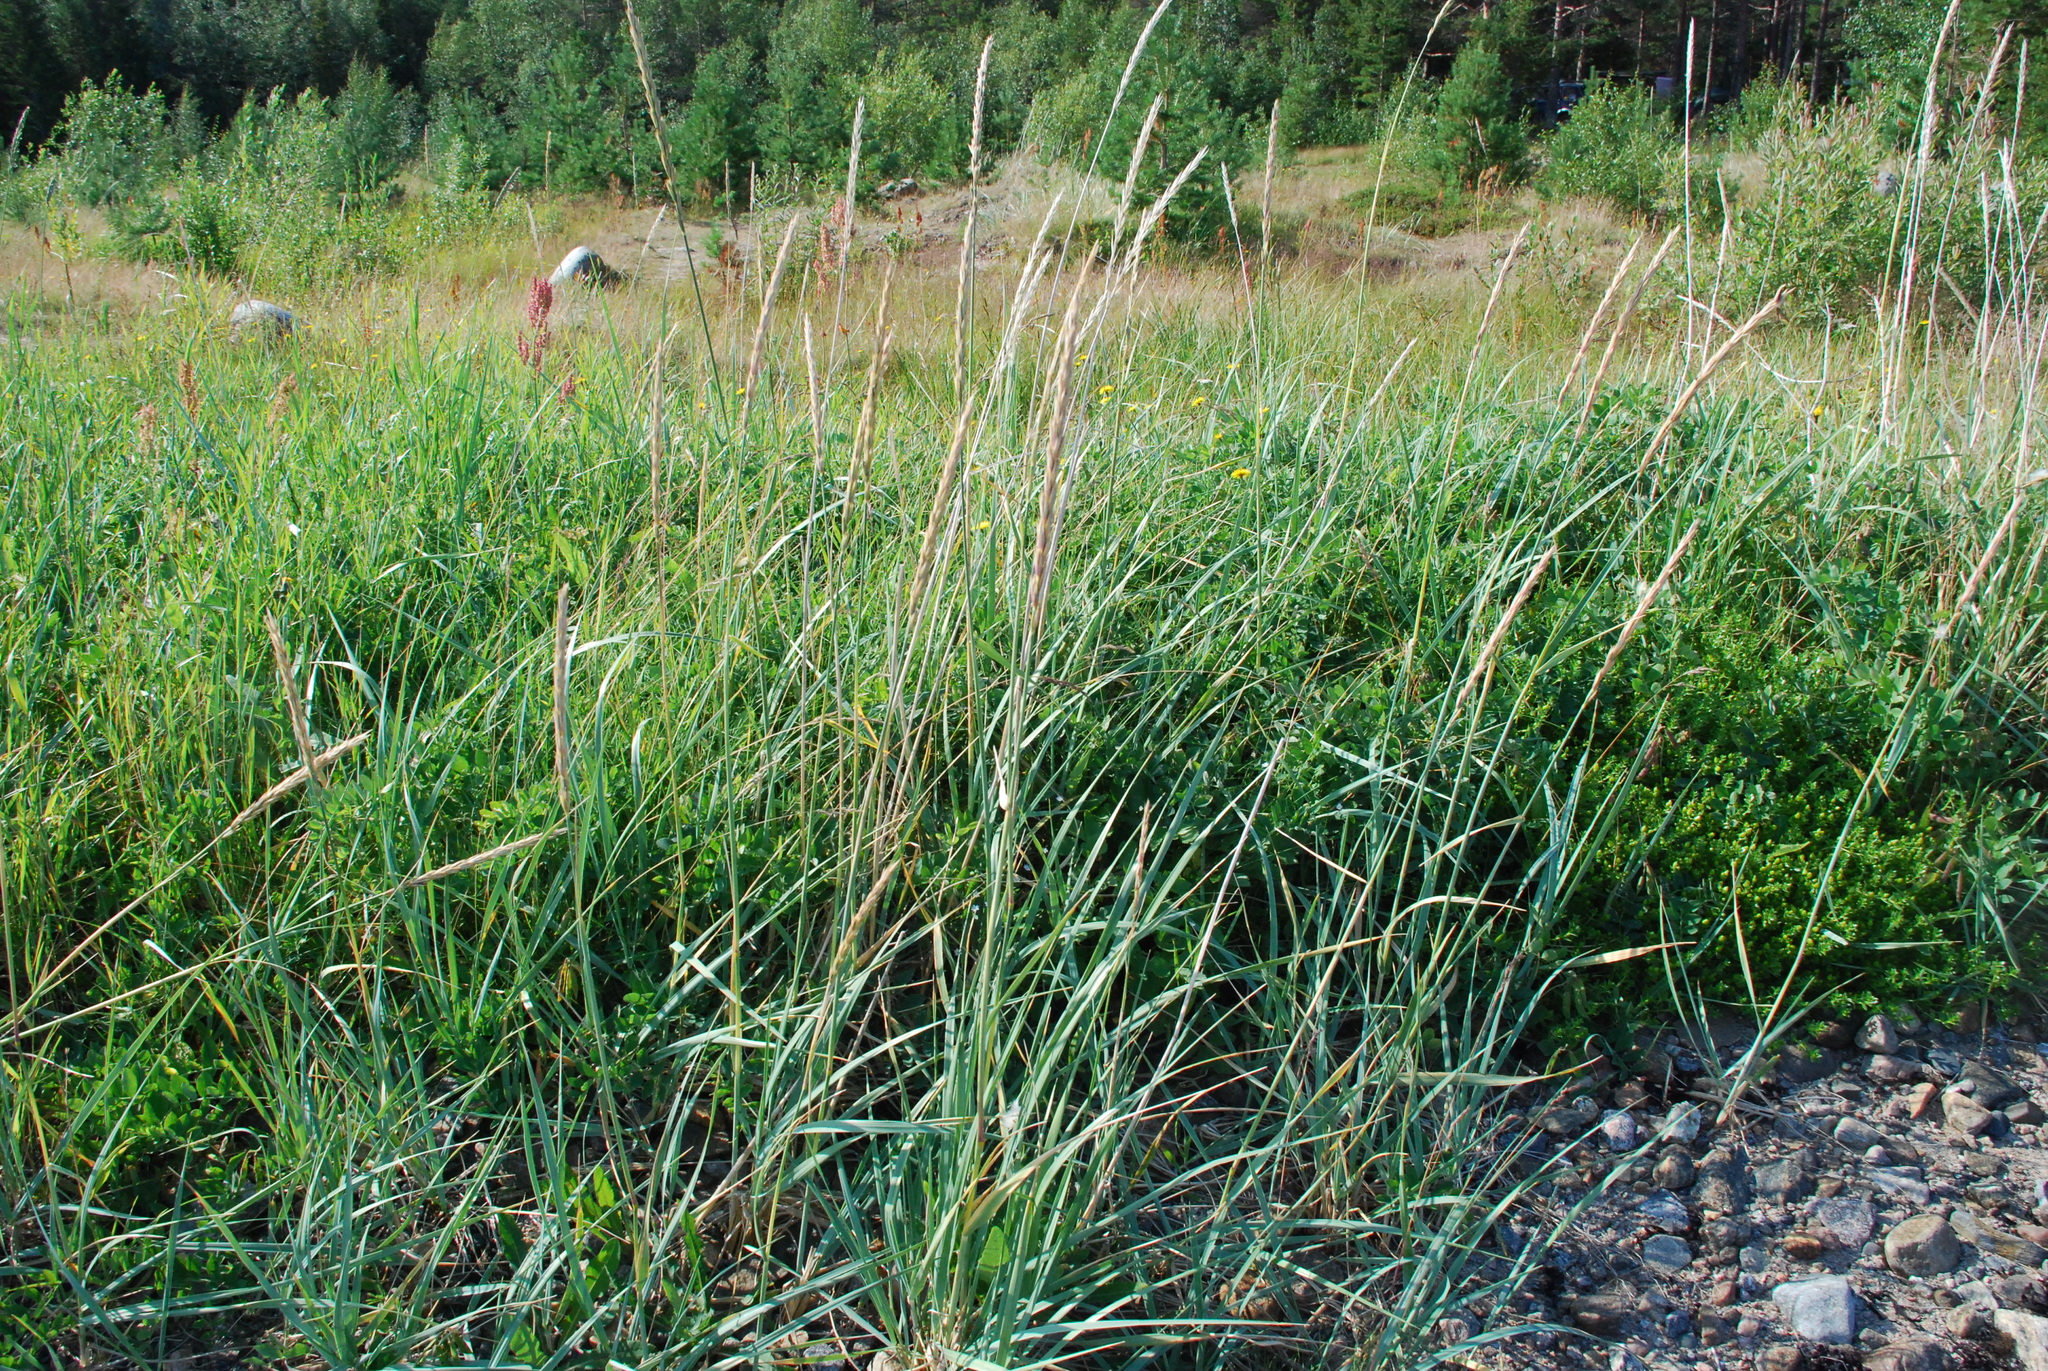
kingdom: Plantae
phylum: Tracheophyta
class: Liliopsida
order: Poales
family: Poaceae
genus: Leymus
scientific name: Leymus arenarius
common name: Lyme-grass
